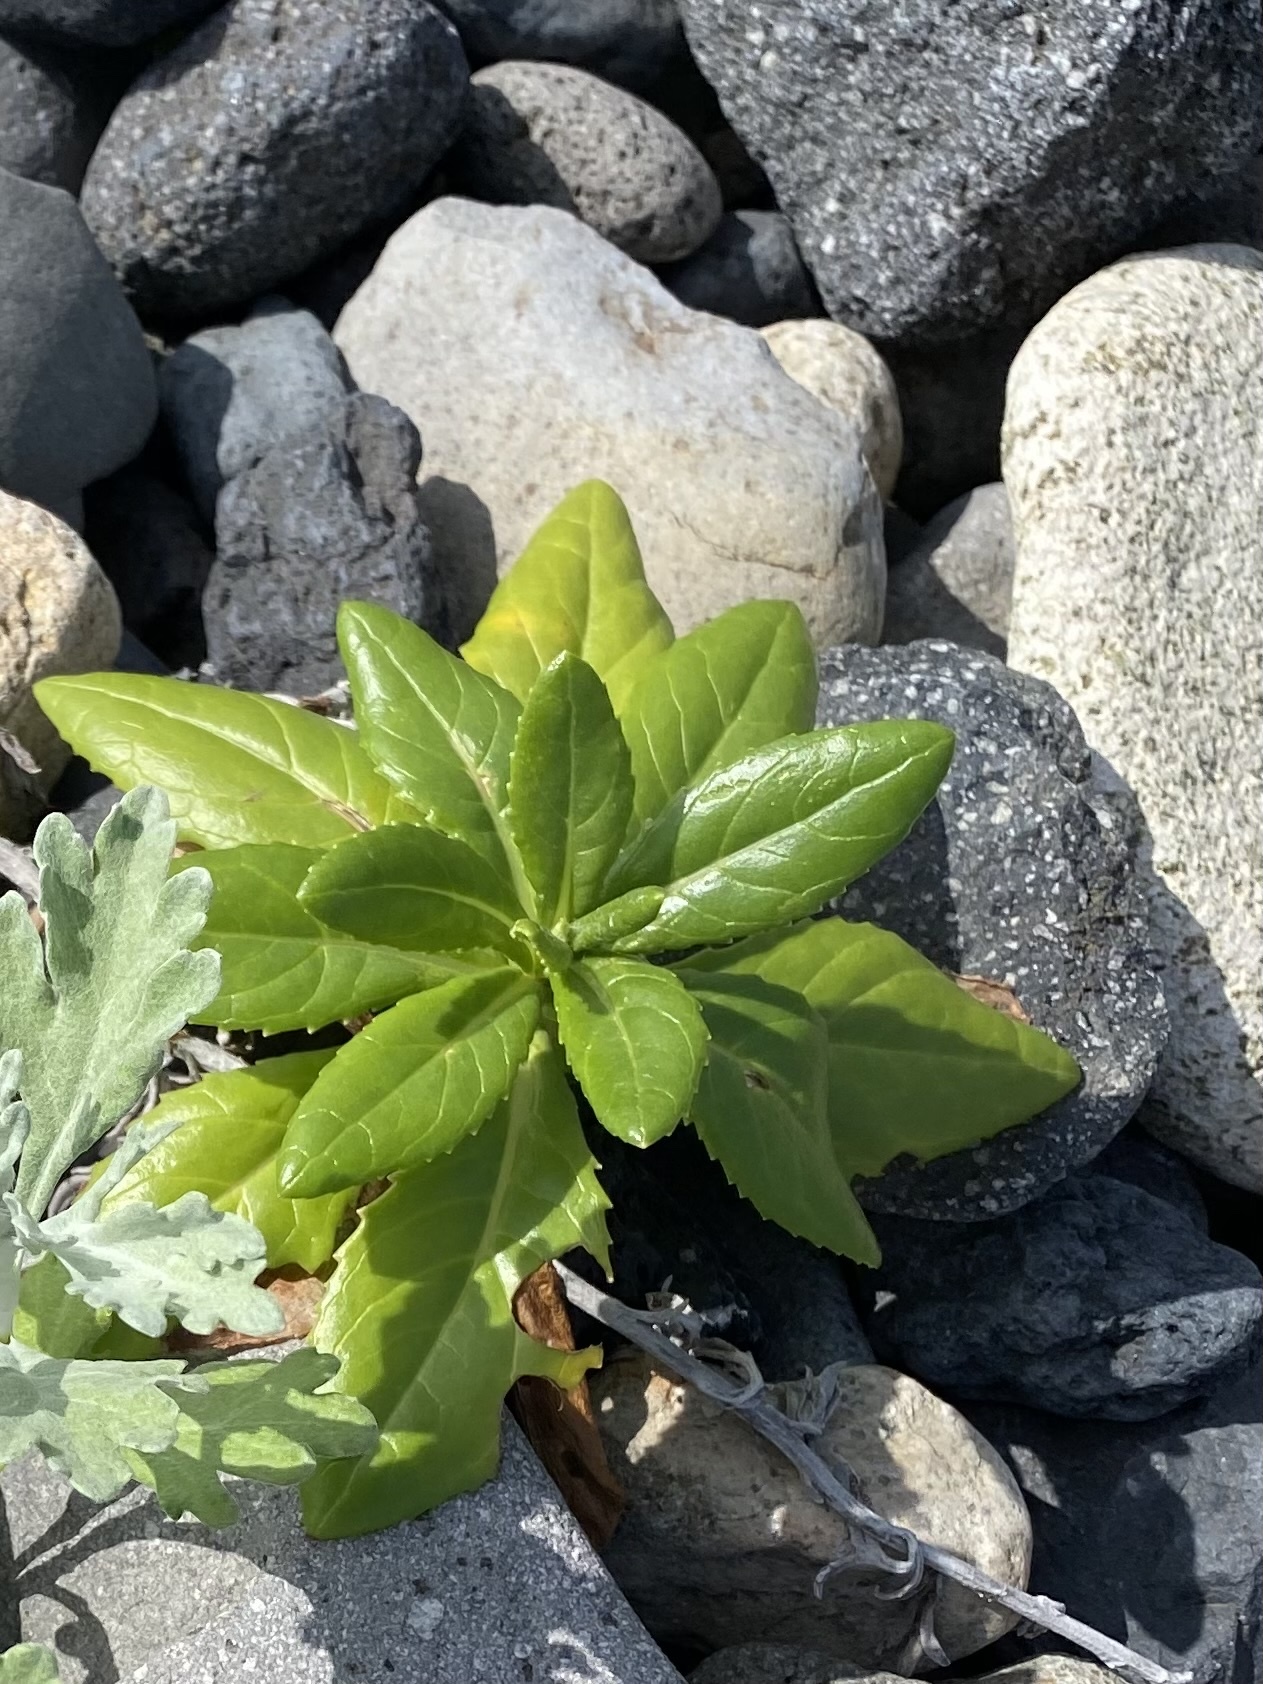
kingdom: Plantae
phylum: Tracheophyta
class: Magnoliopsida
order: Asterales
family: Asteraceae
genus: Jacobaea
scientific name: Jacobaea pseudoarnica
